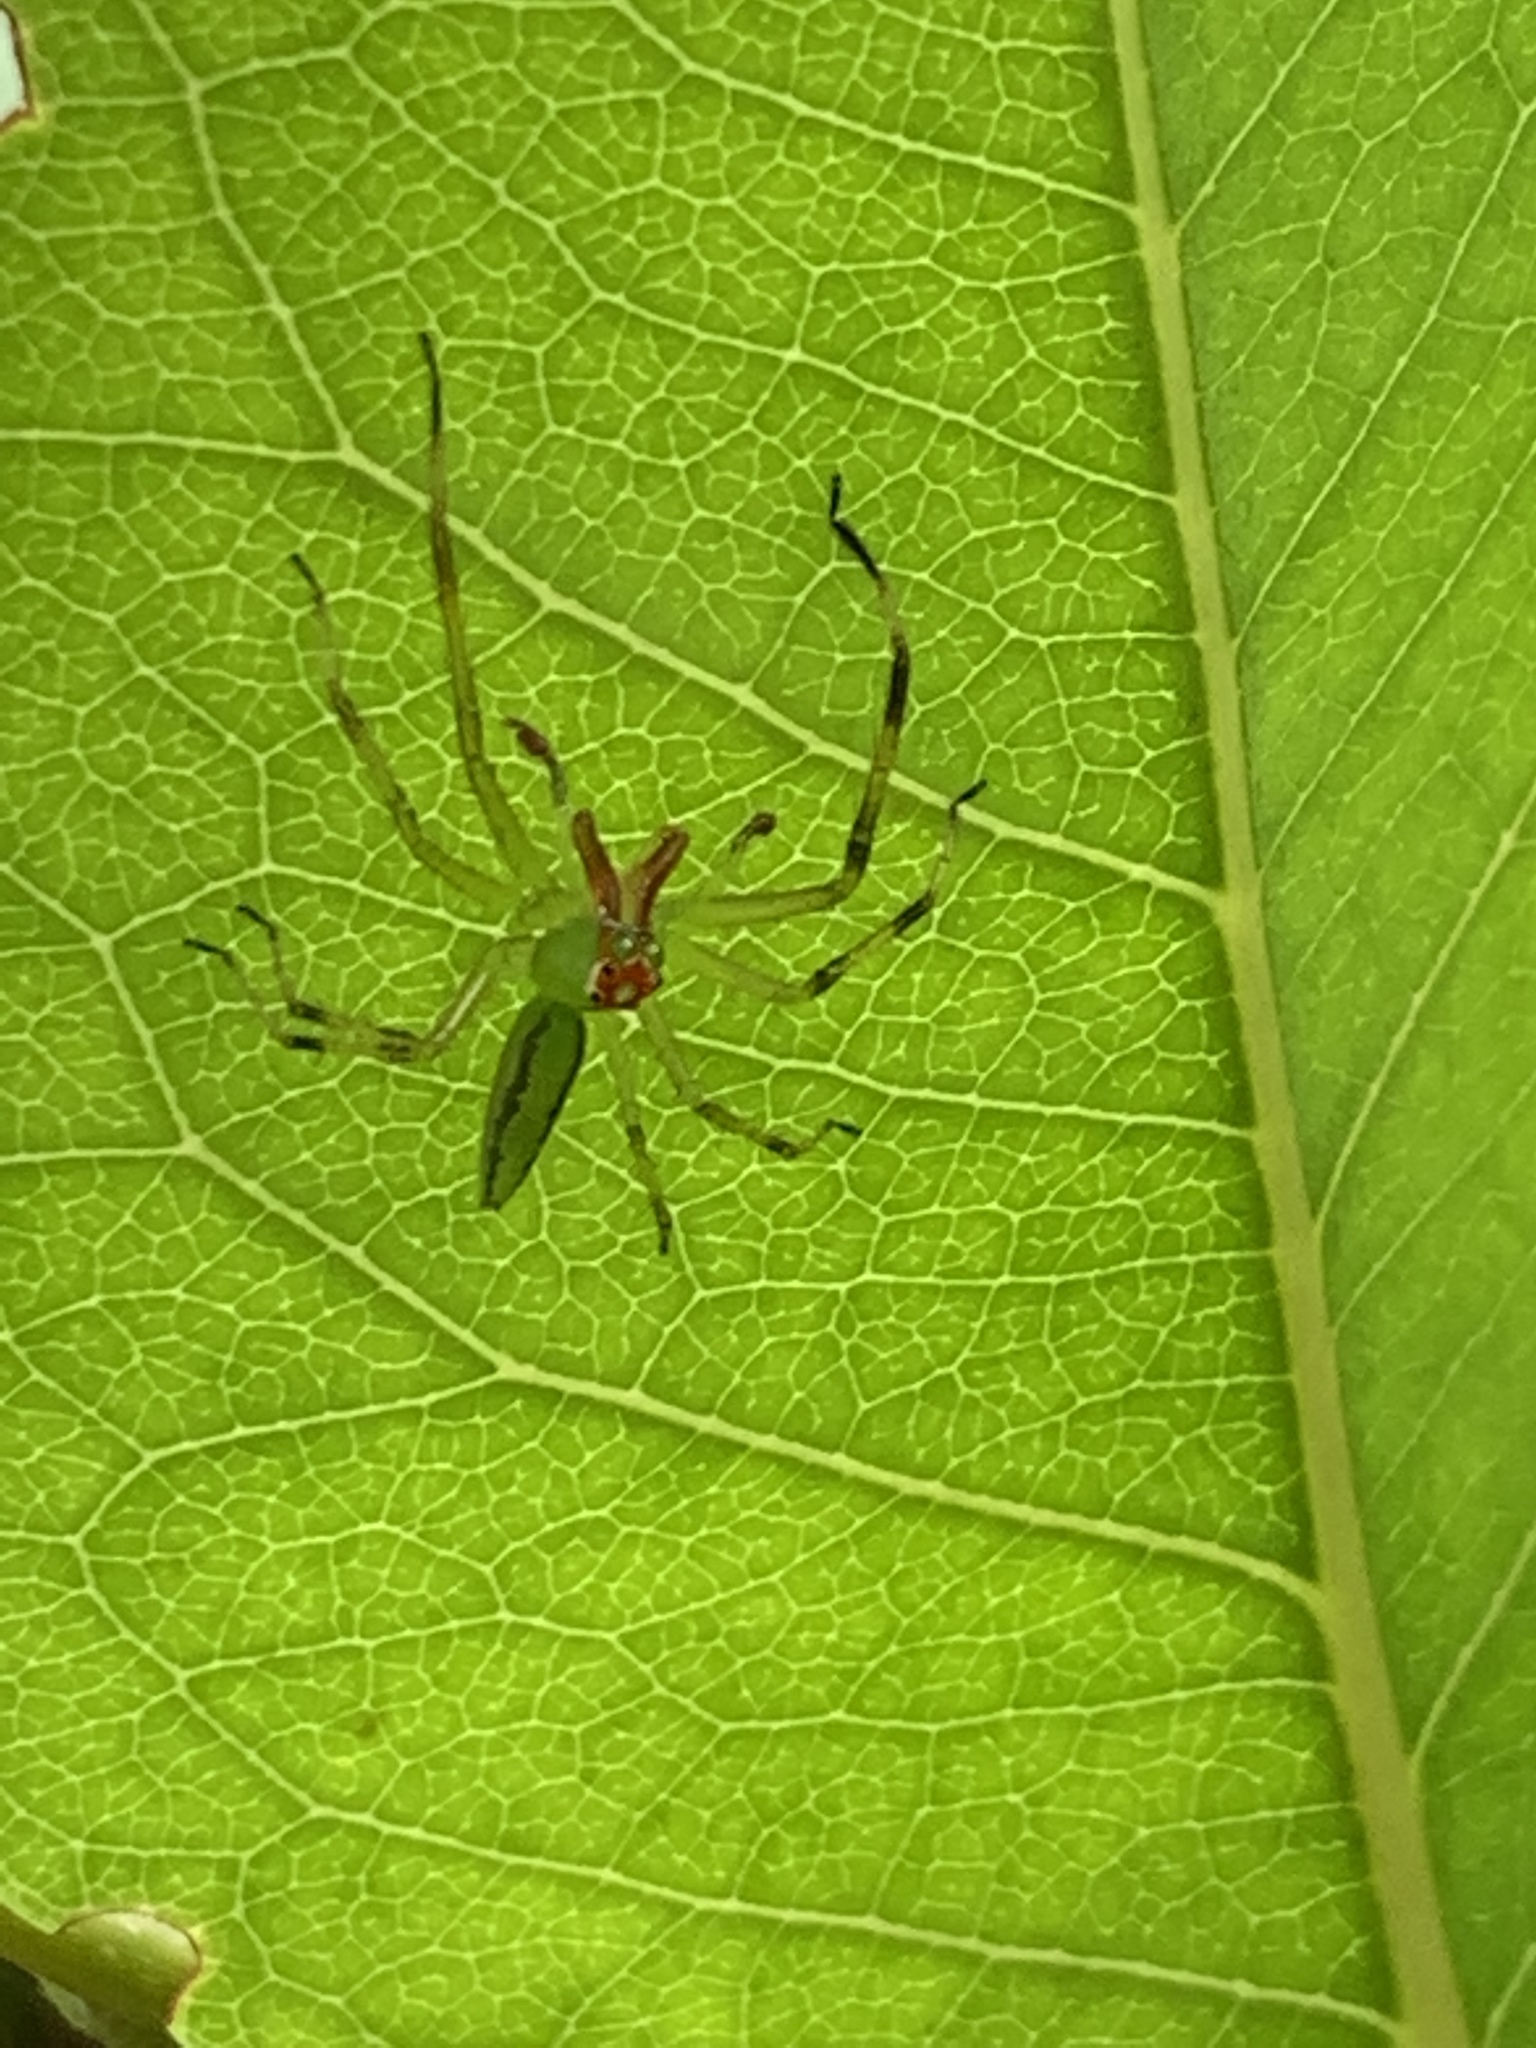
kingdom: Animalia
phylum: Arthropoda
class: Arachnida
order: Araneae
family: Salticidae
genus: Lyssomanes
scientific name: Lyssomanes viridis
